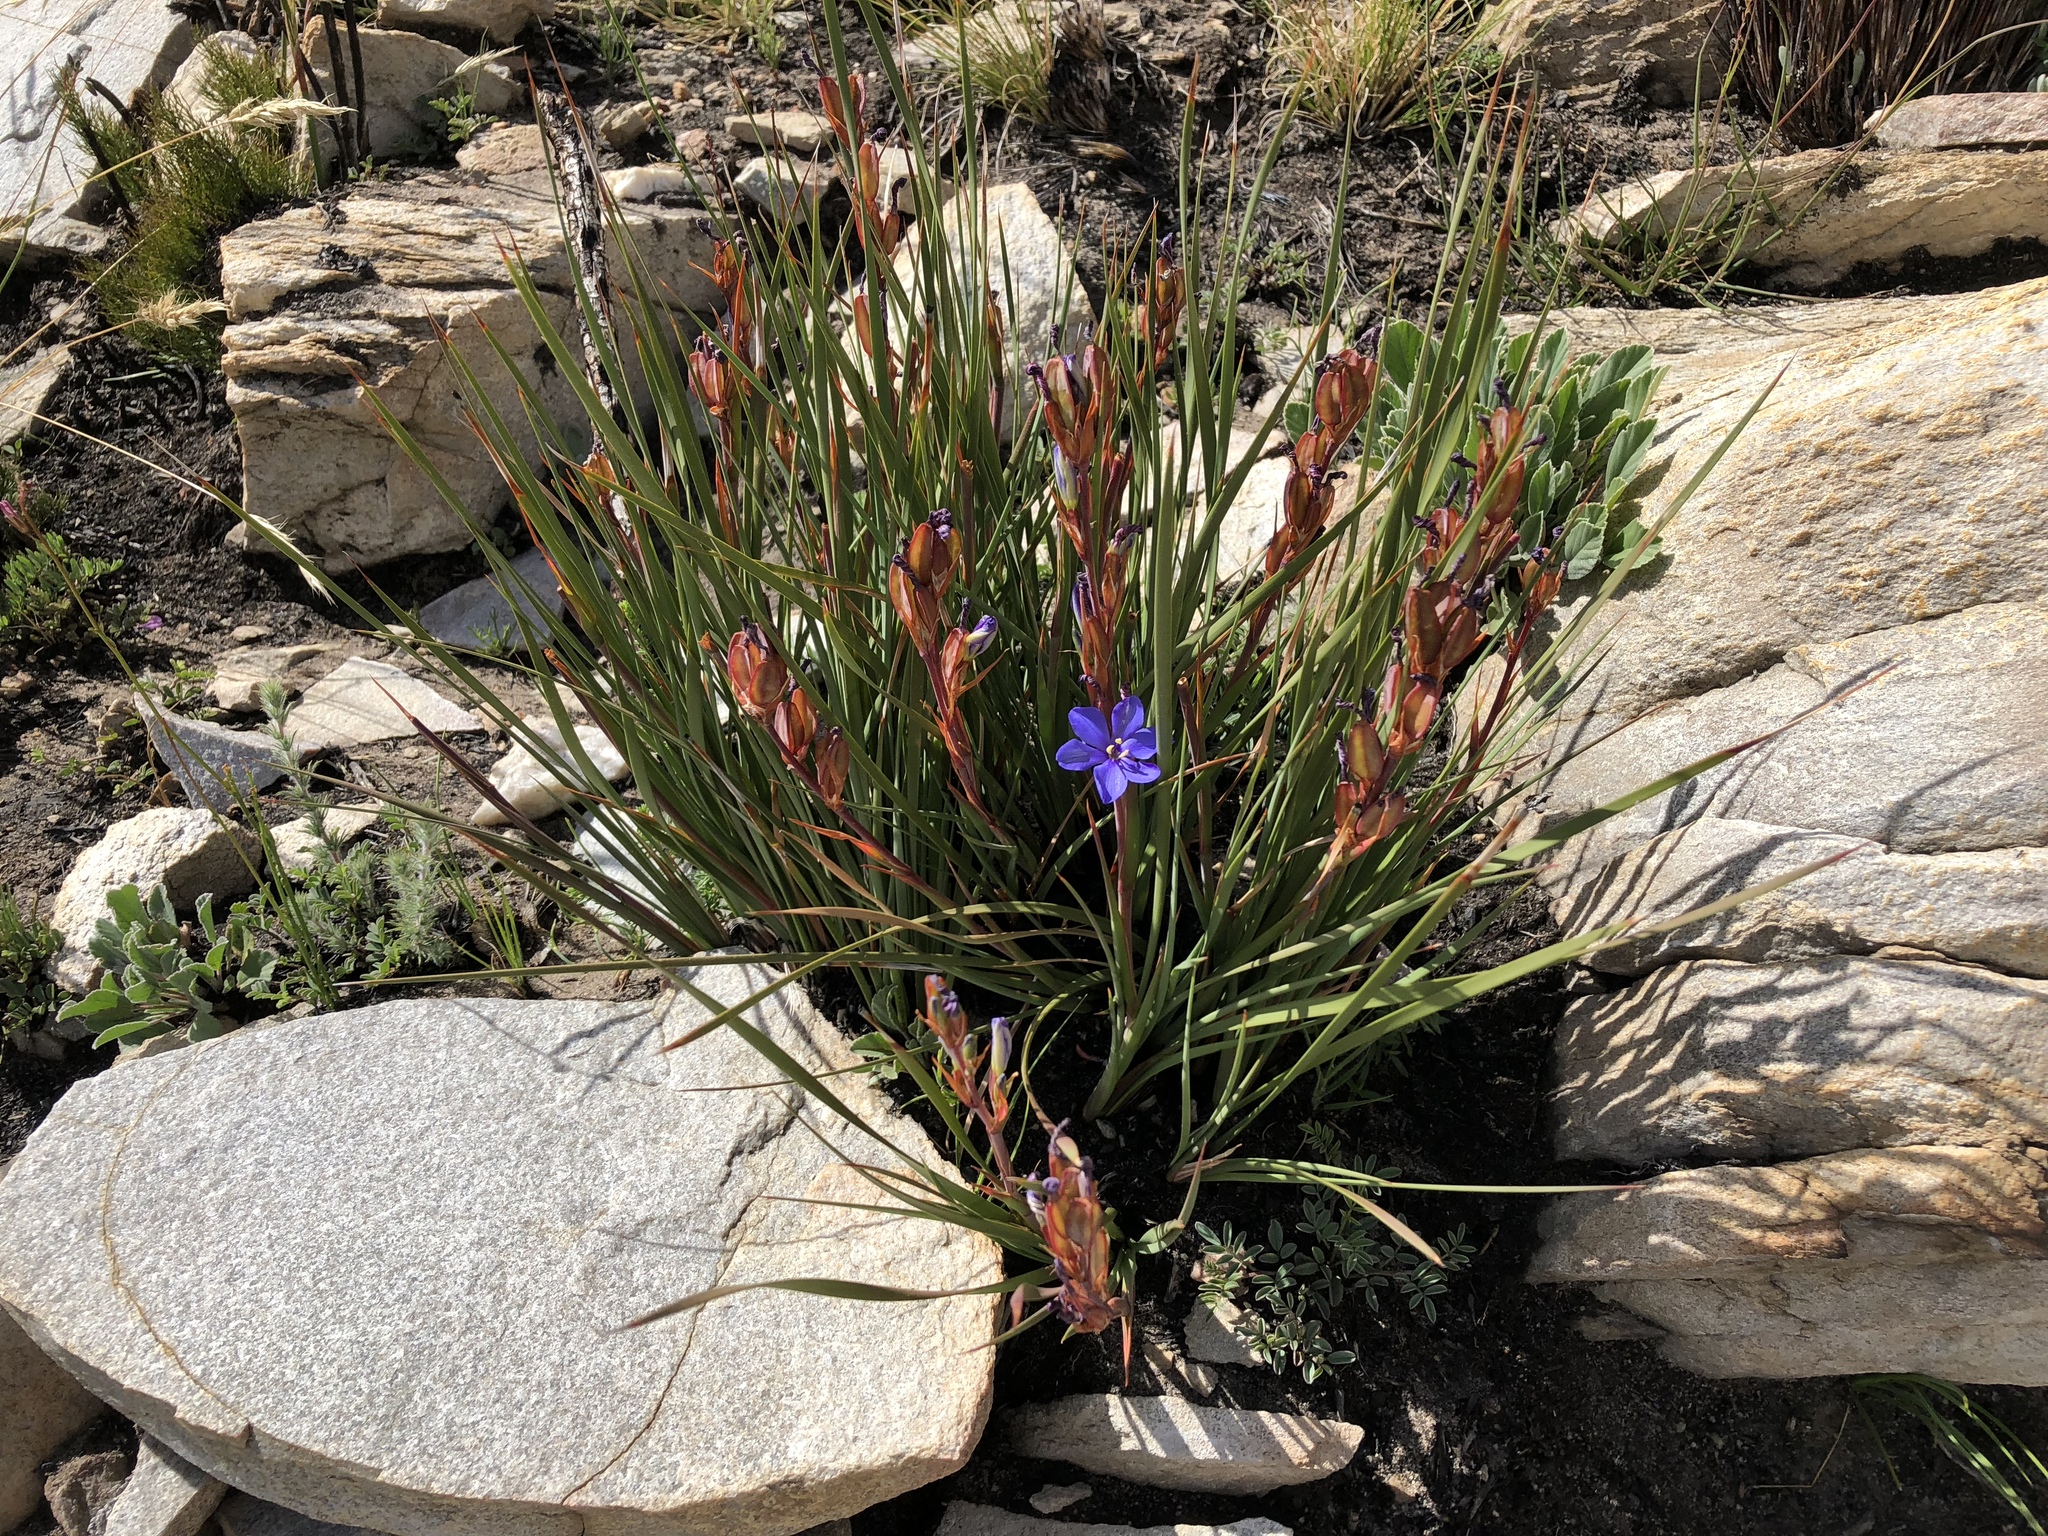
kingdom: Plantae
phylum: Tracheophyta
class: Liliopsida
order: Asparagales
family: Iridaceae
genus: Aristea
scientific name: Aristea racemosa
